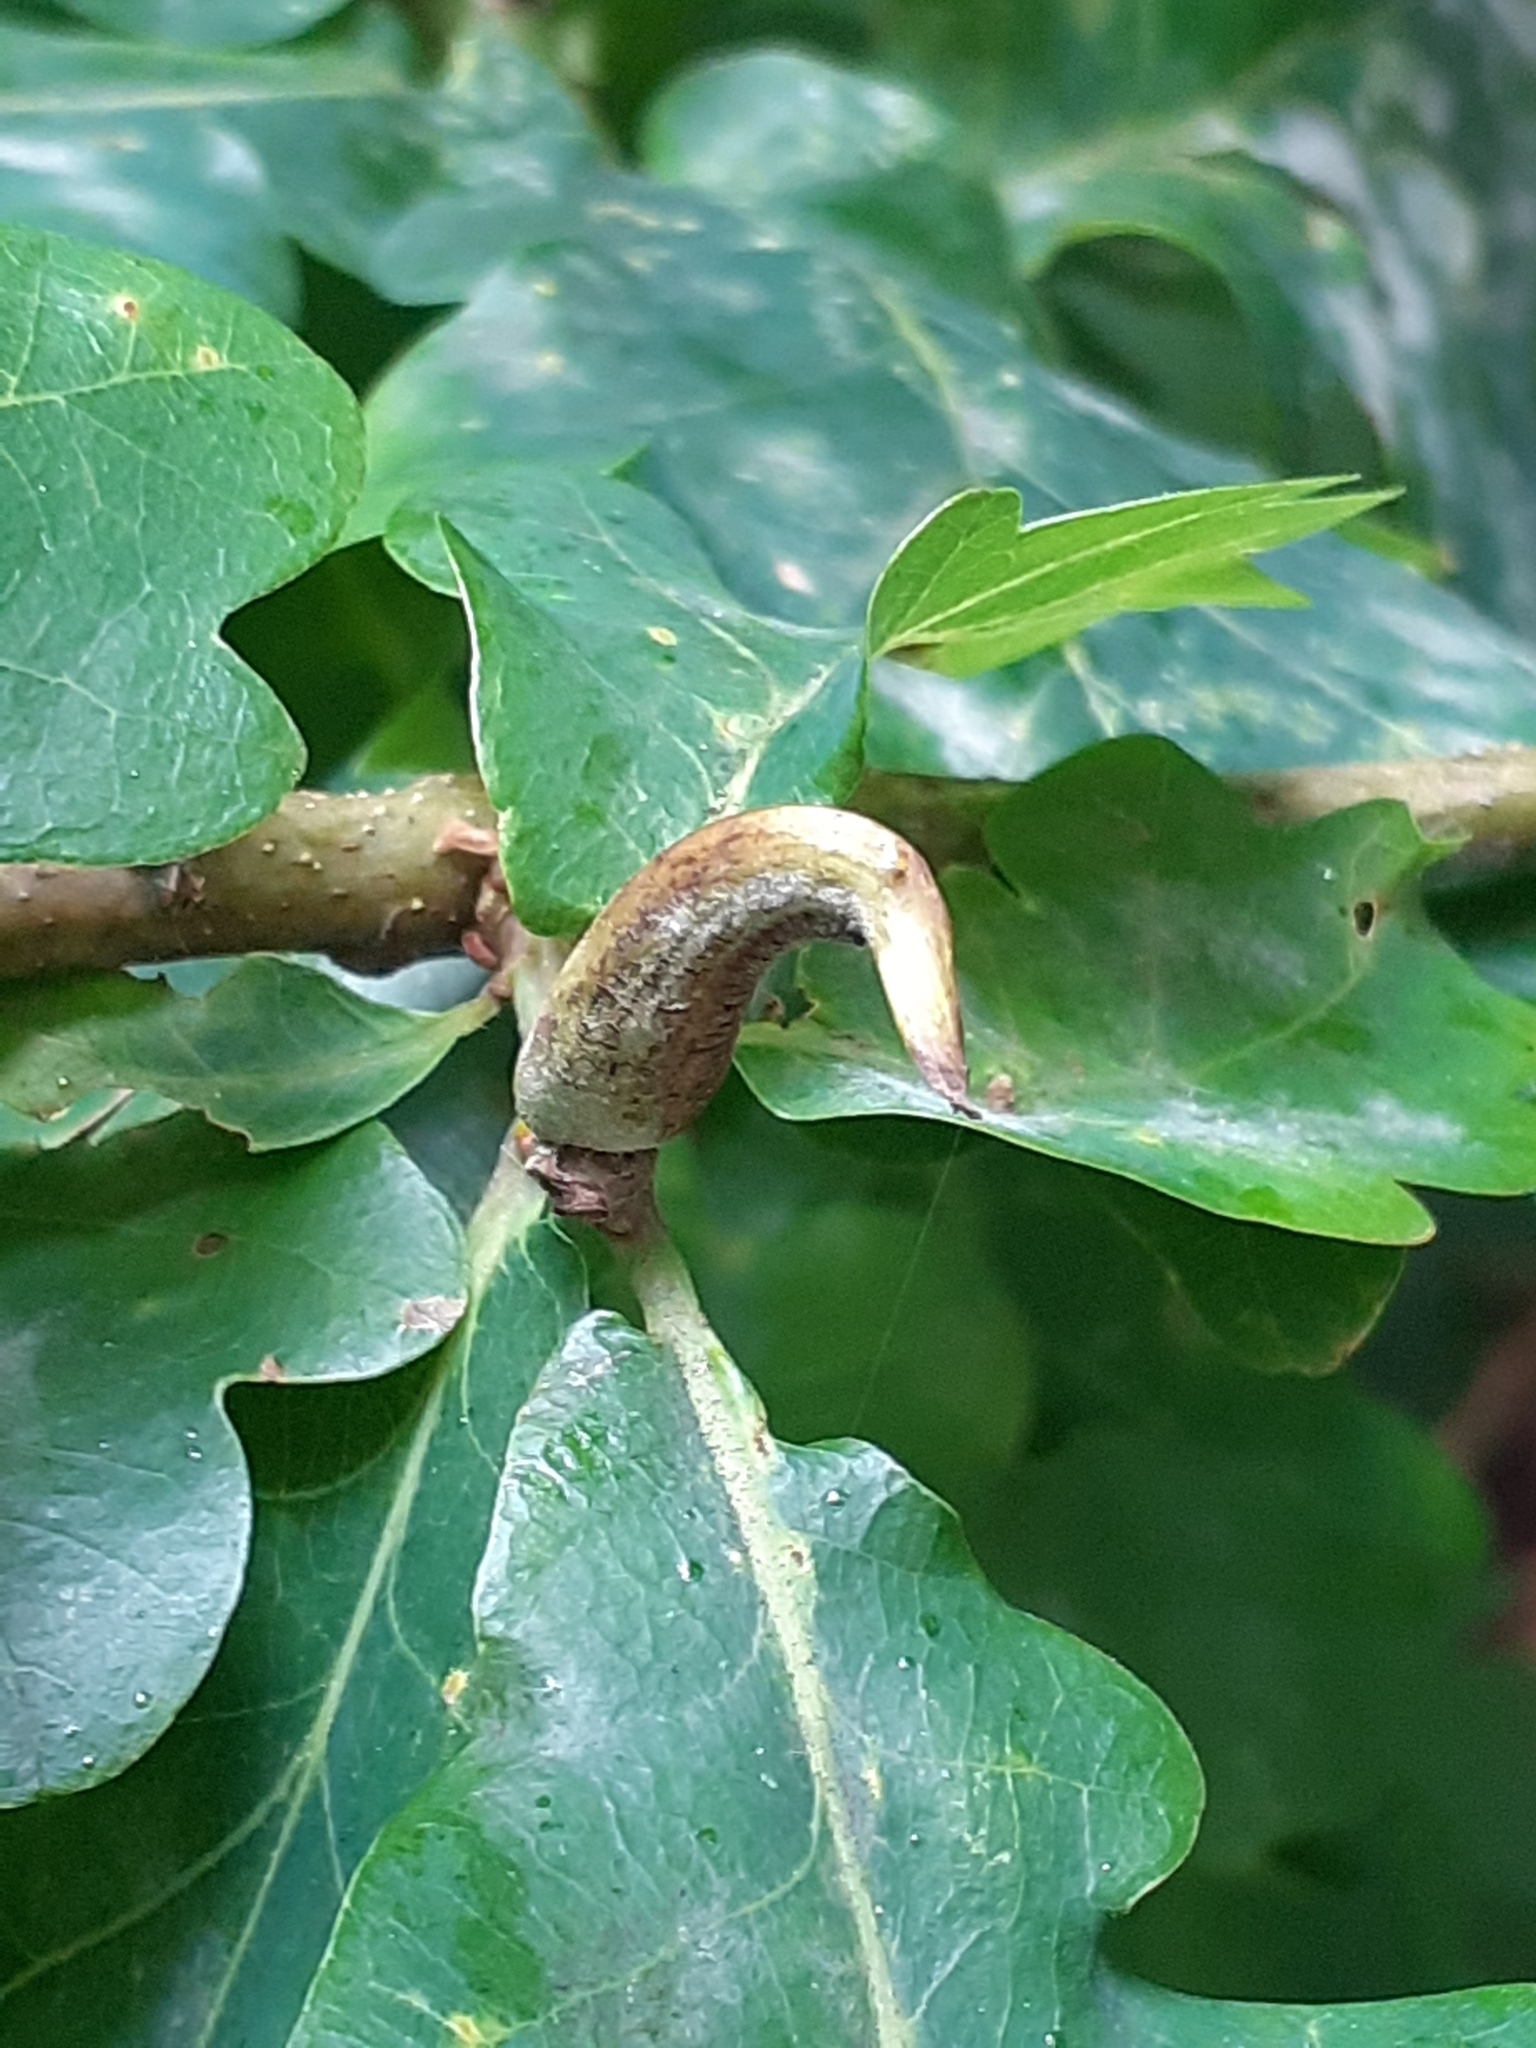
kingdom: Animalia
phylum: Arthropoda
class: Insecta
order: Hymenoptera
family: Cynipidae
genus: Andricus
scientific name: Andricus aries
